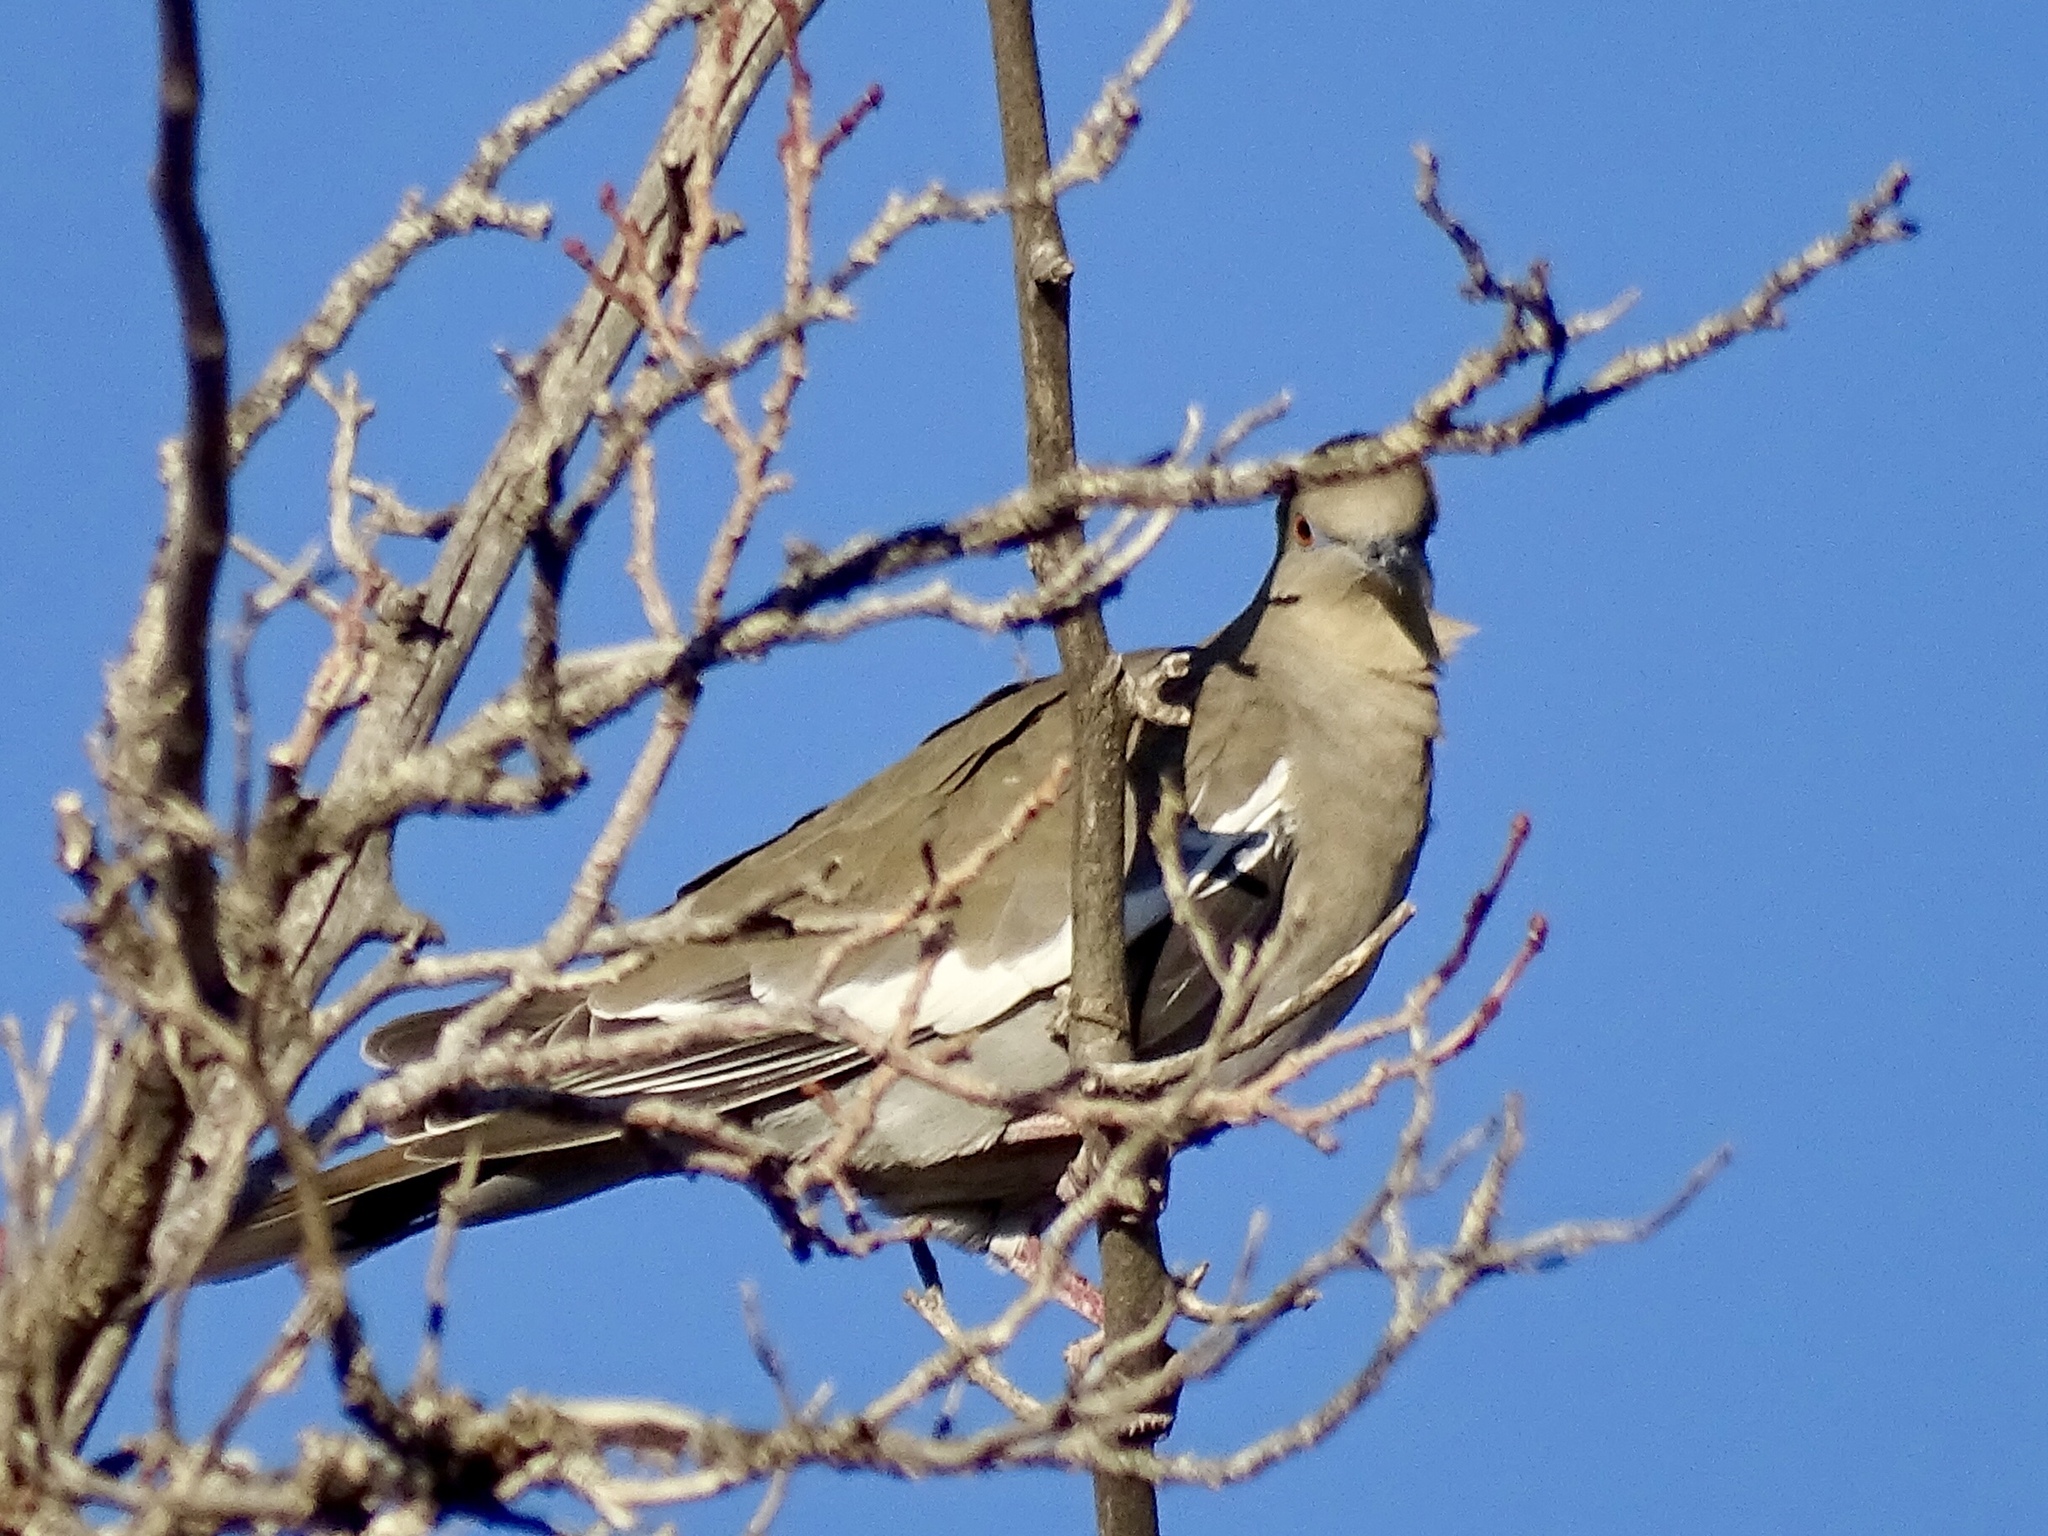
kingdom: Animalia
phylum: Chordata
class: Aves
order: Columbiformes
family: Columbidae
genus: Zenaida
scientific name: Zenaida asiatica
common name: White-winged dove
